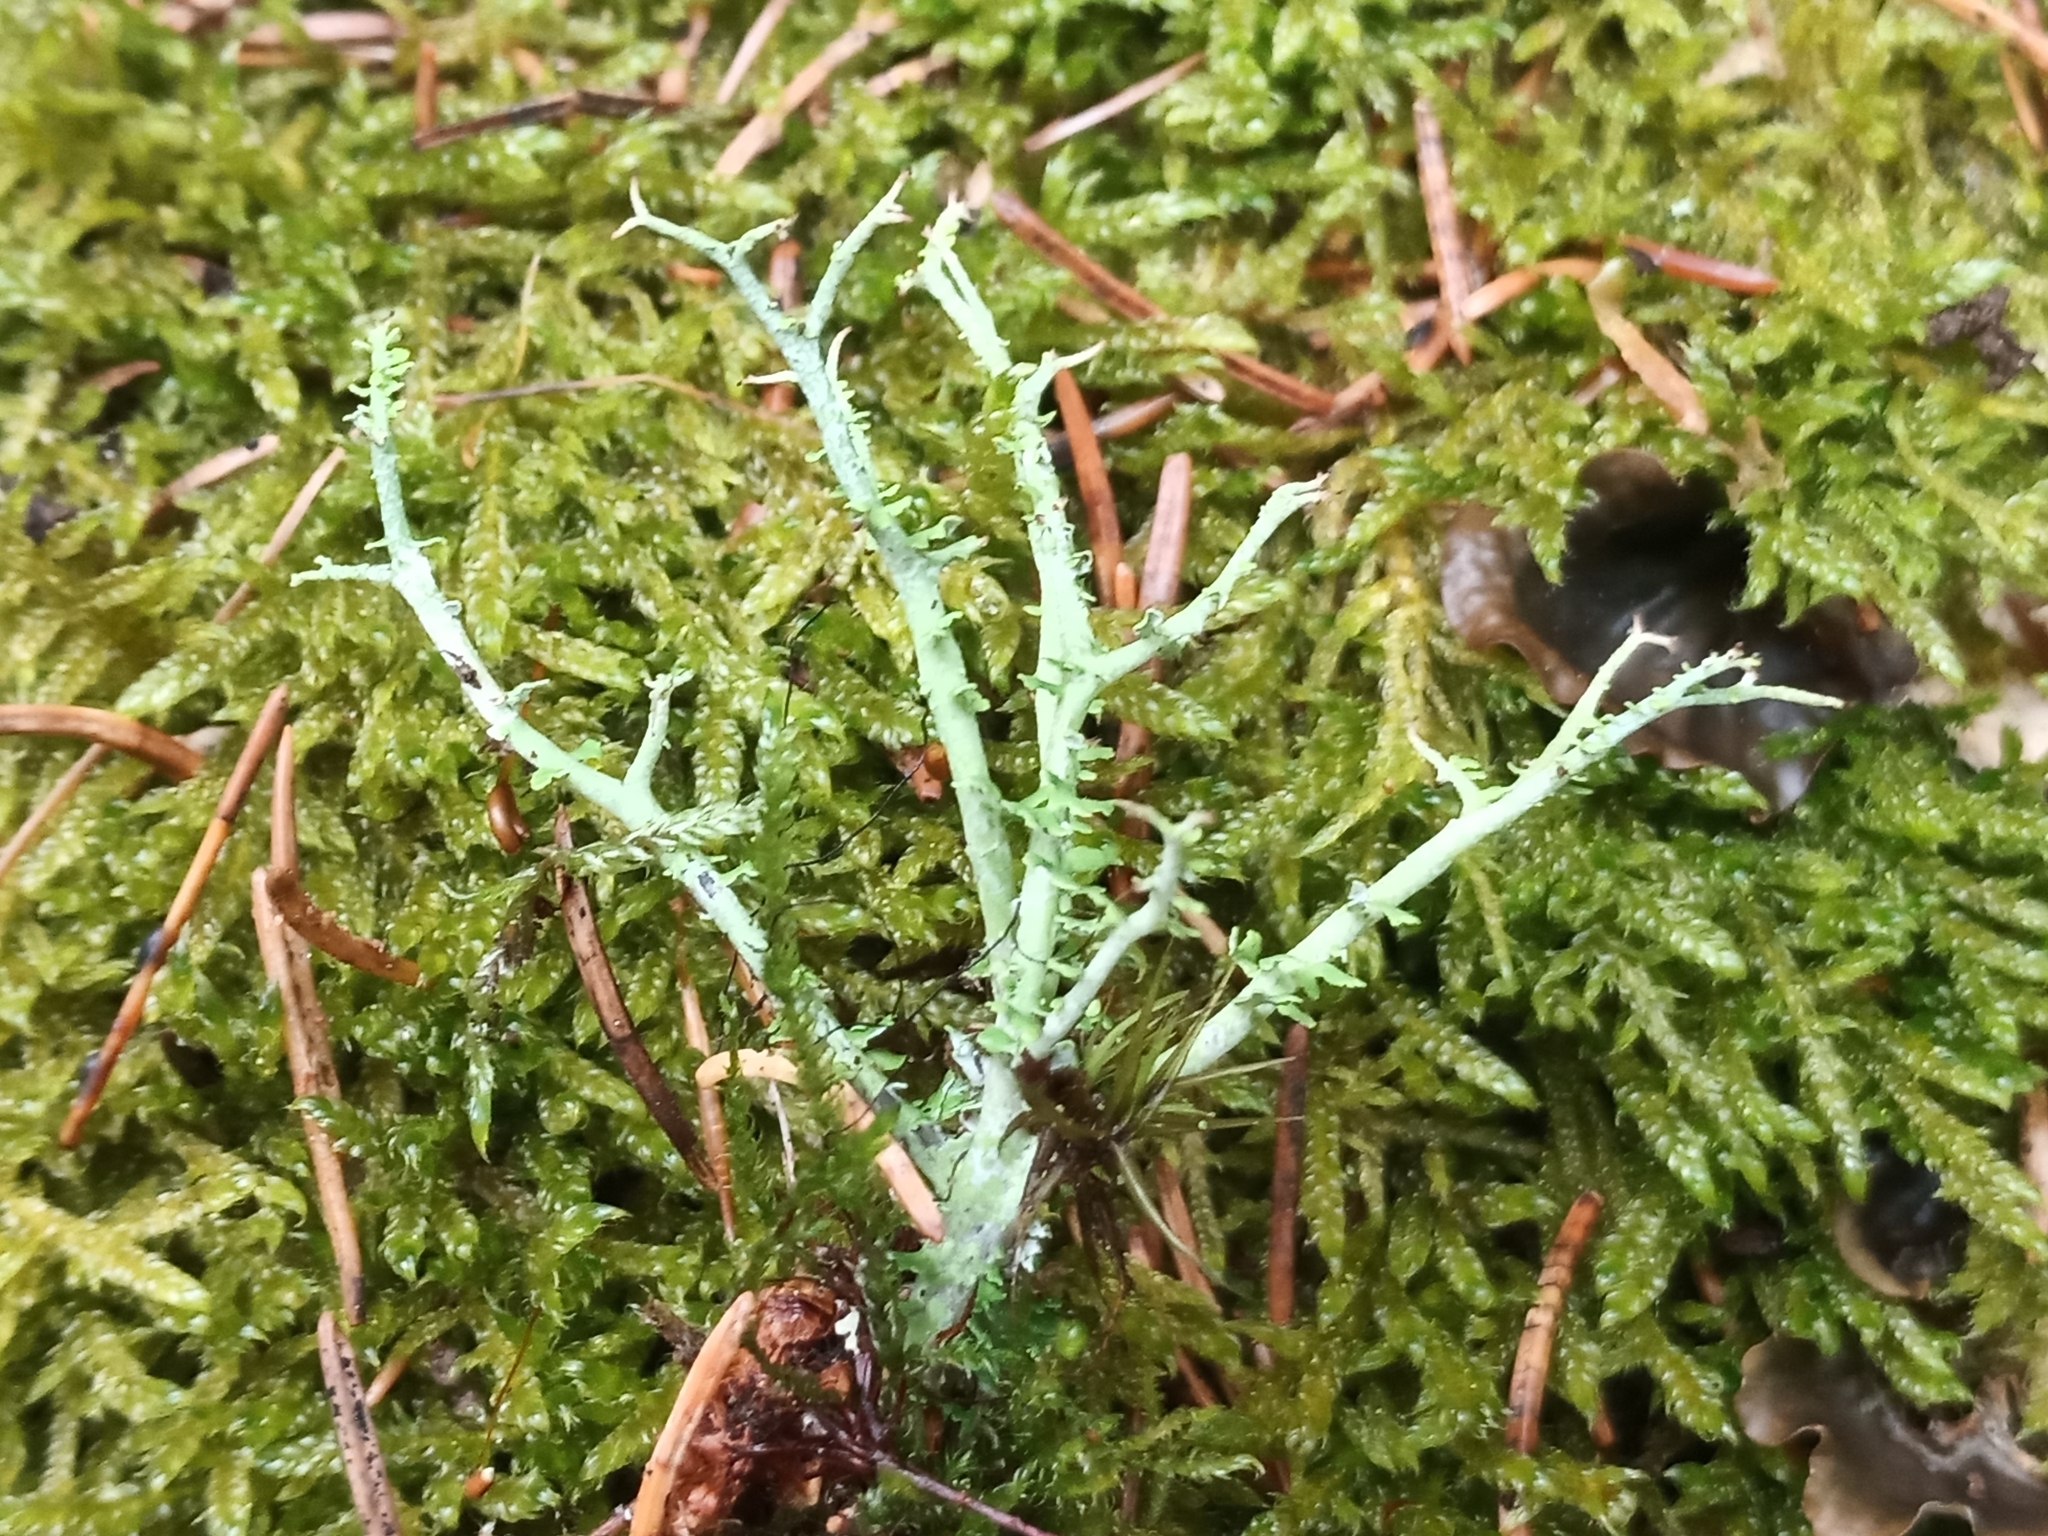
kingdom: Fungi
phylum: Ascomycota
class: Lecanoromycetes
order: Lecanorales
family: Cladoniaceae
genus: Cladonia
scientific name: Cladonia furcata
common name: Many-forked cladonia
